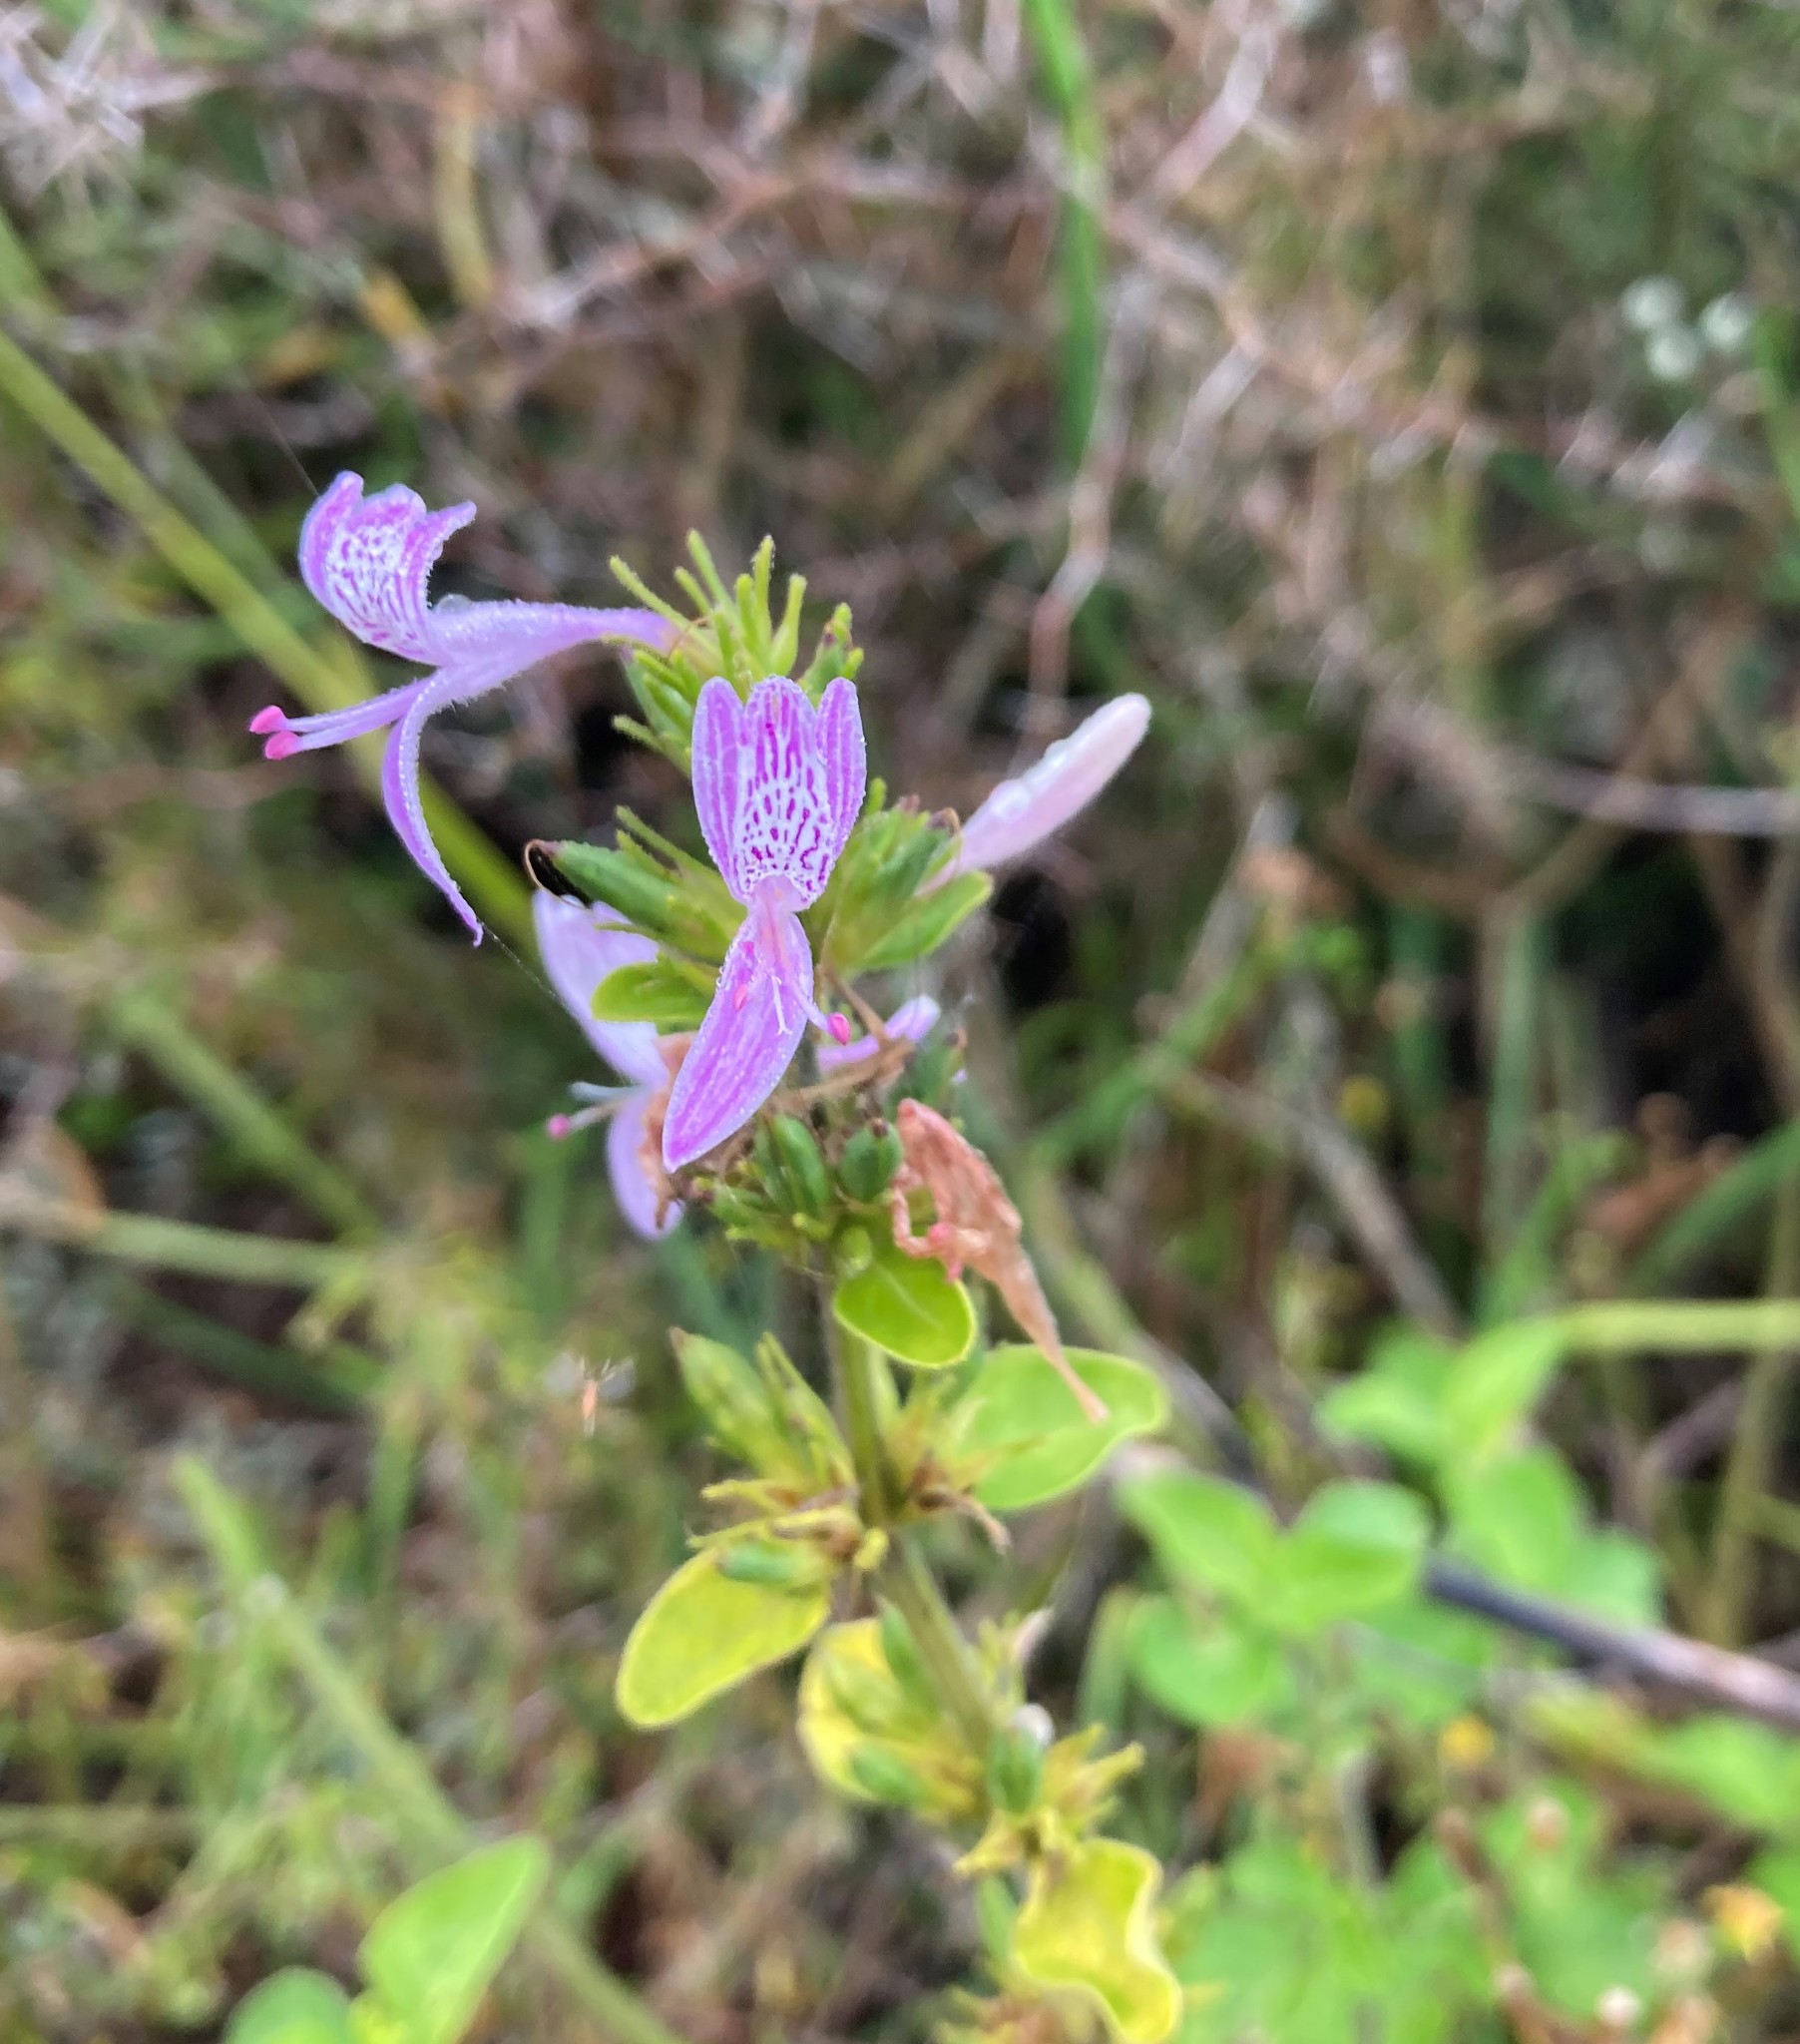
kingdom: Plantae
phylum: Tracheophyta
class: Magnoliopsida
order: Lamiales
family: Acanthaceae
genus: Hypoestes
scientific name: Hypoestes aristata
